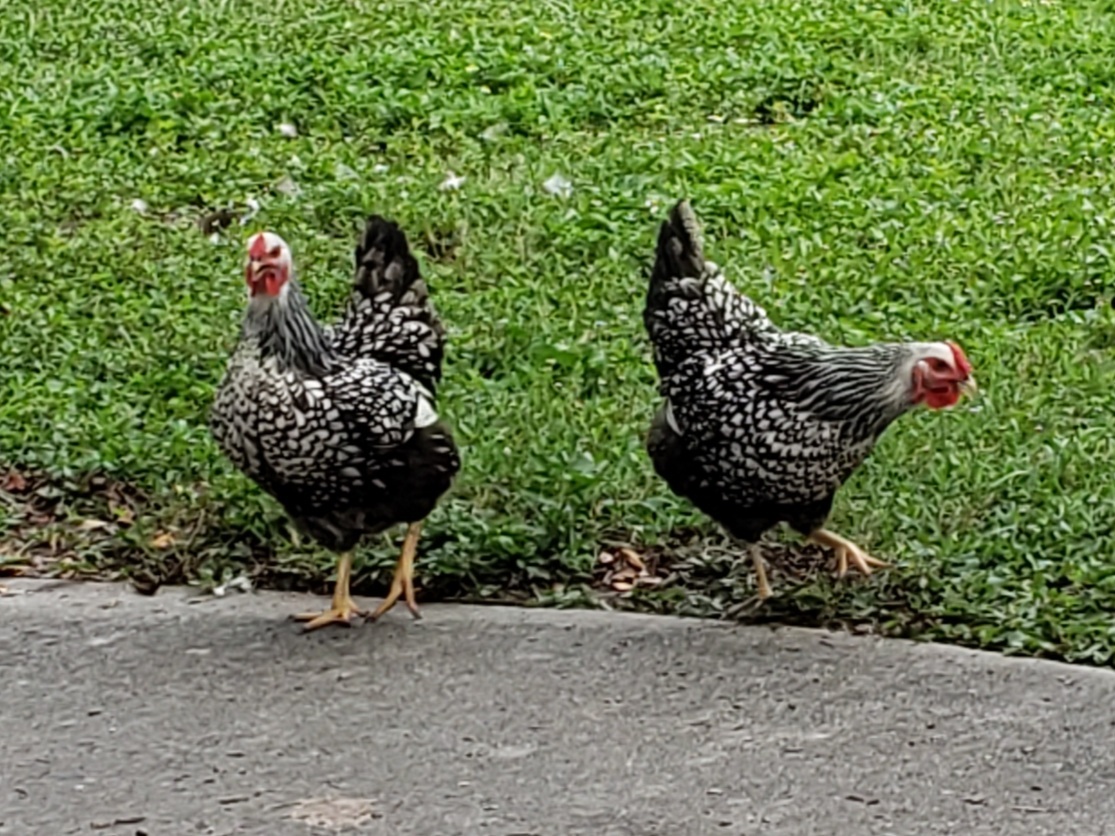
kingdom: Animalia
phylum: Chordata
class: Aves
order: Galliformes
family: Phasianidae
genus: Gallus
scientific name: Gallus gallus
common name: Red junglefowl
